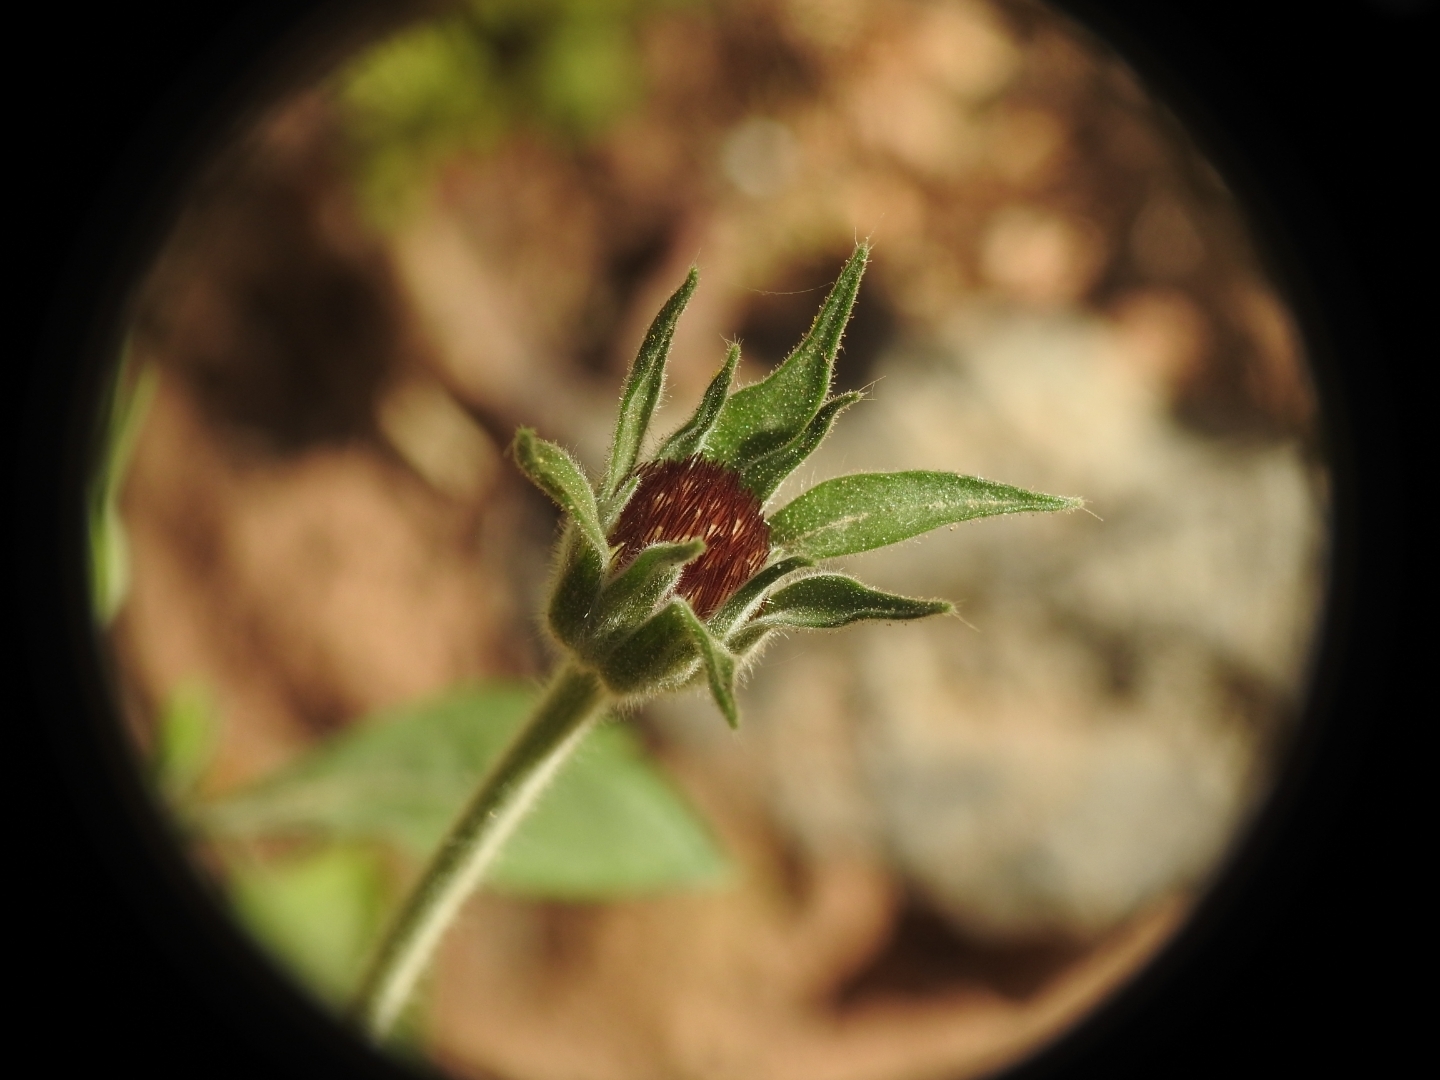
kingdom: Plantae
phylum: Tracheophyta
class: Magnoliopsida
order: Dipsacales
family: Caprifoliaceae
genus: Pterocephalus
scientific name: Pterocephalus plumosus
